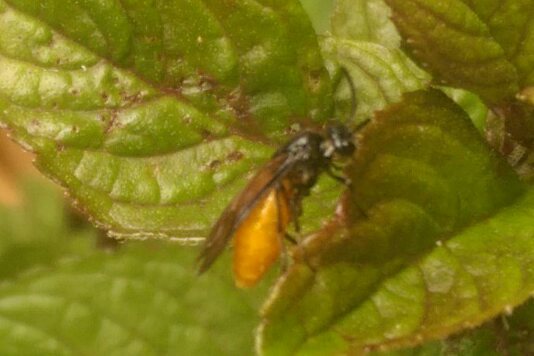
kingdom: Animalia
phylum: Arthropoda
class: Insecta
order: Hymenoptera
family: Argidae
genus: Arge
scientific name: Arge pagana
